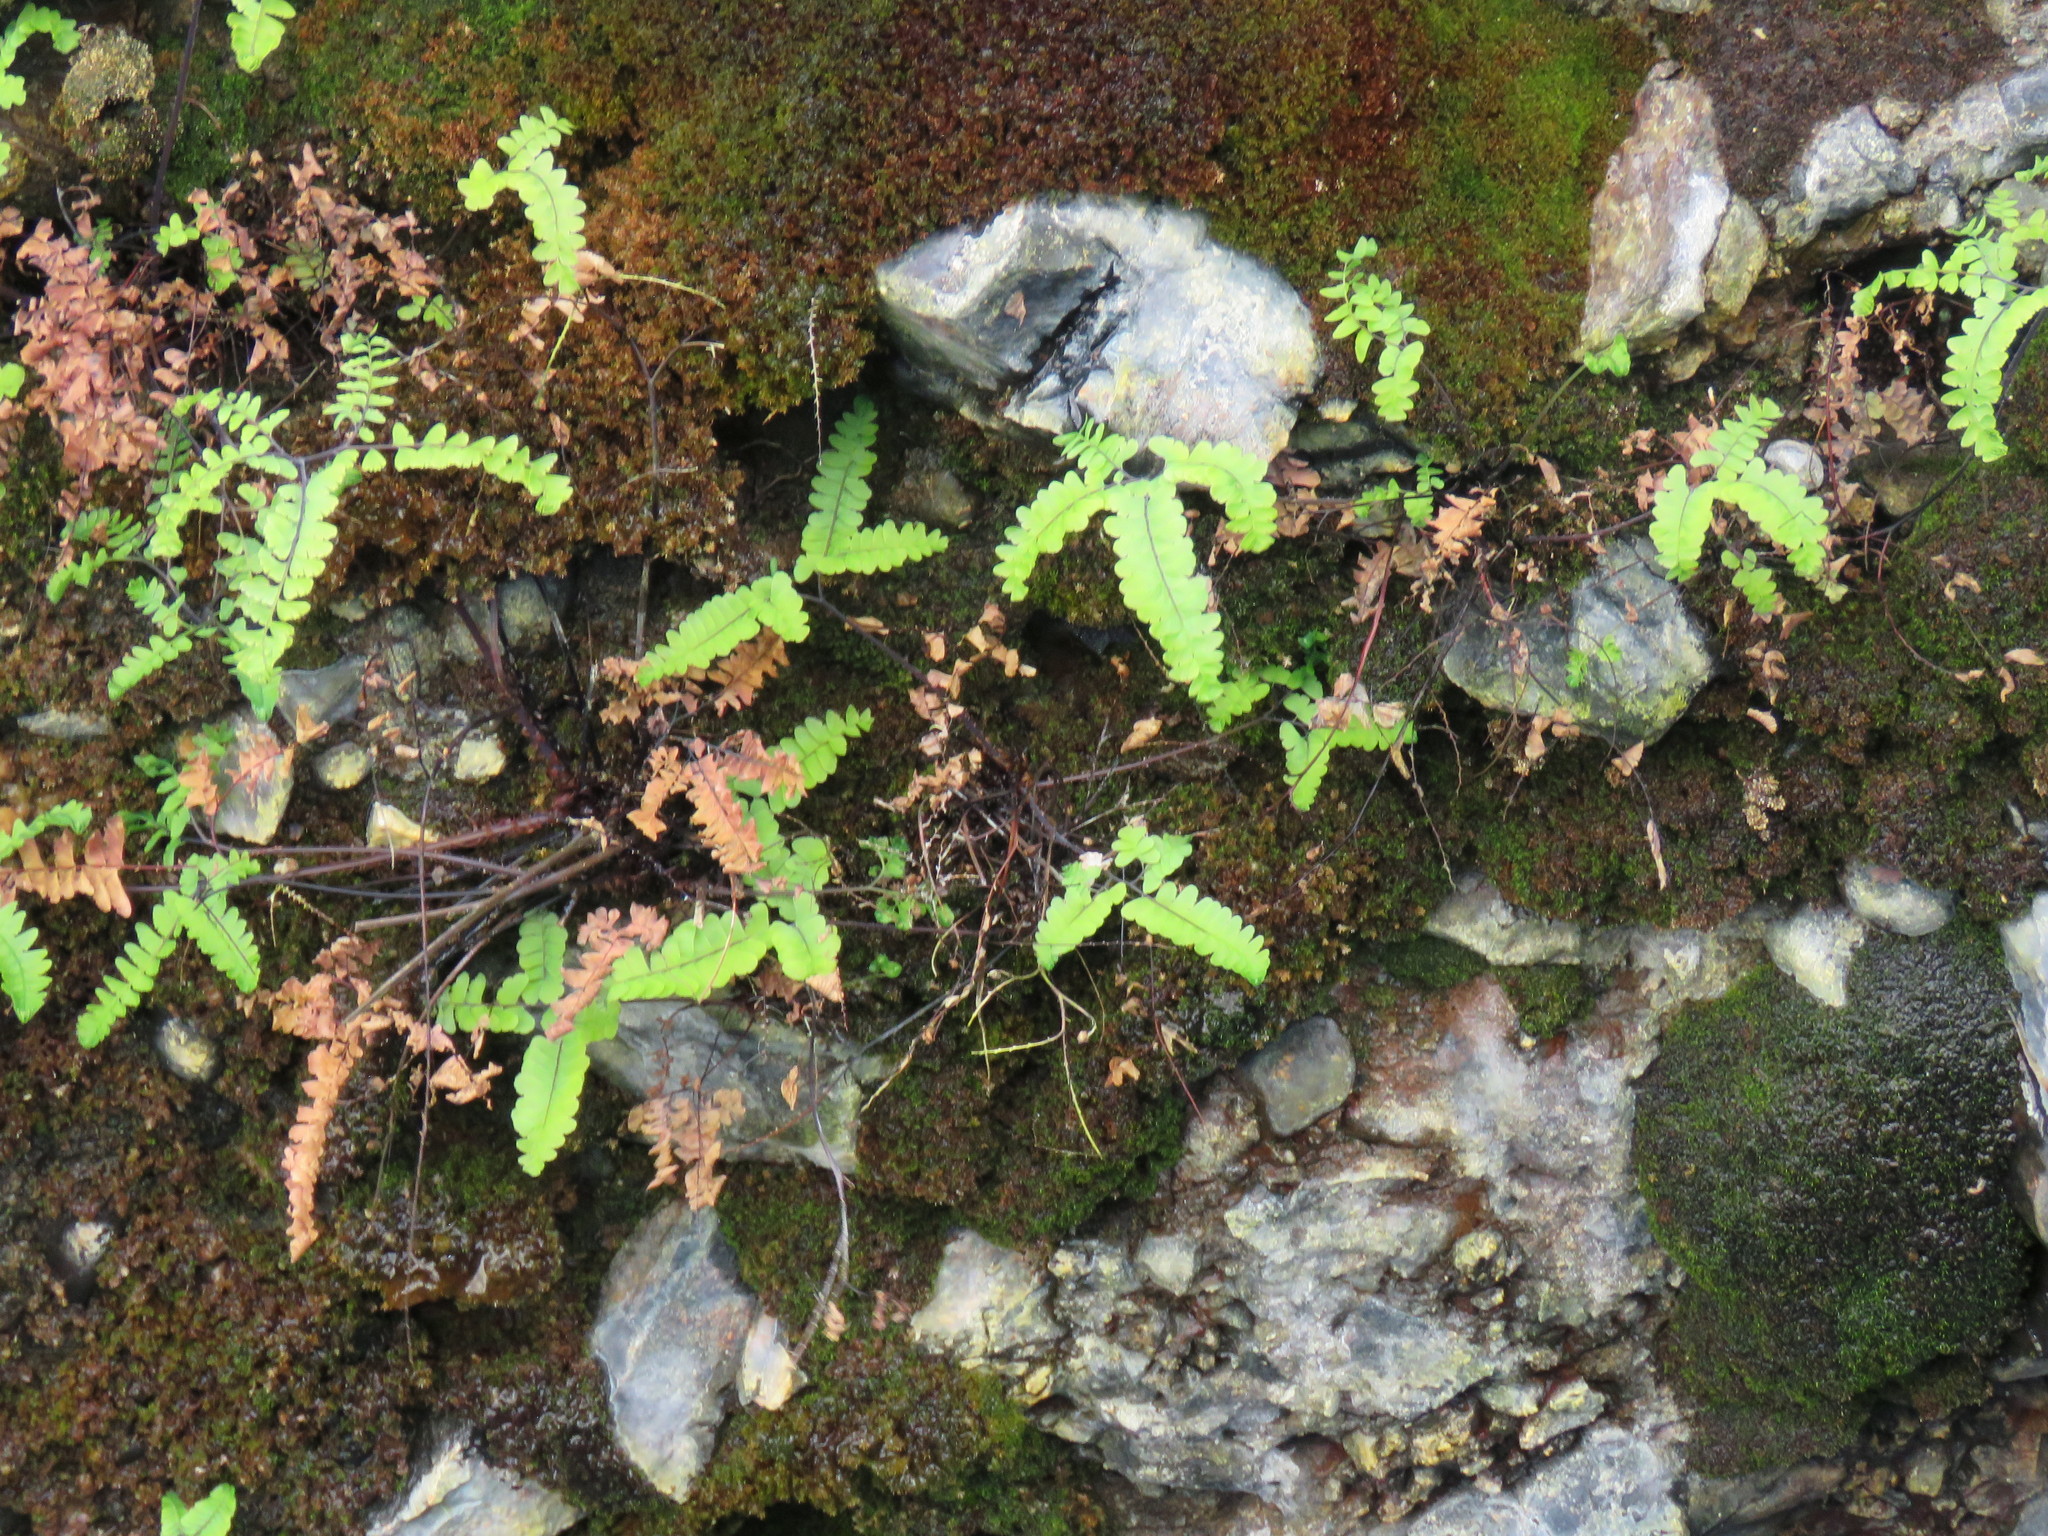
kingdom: Plantae
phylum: Tracheophyta
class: Polypodiopsida
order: Polypodiales
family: Pteridaceae
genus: Adiantum
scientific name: Adiantum aleuticum
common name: Aleutian maidenhair fern
